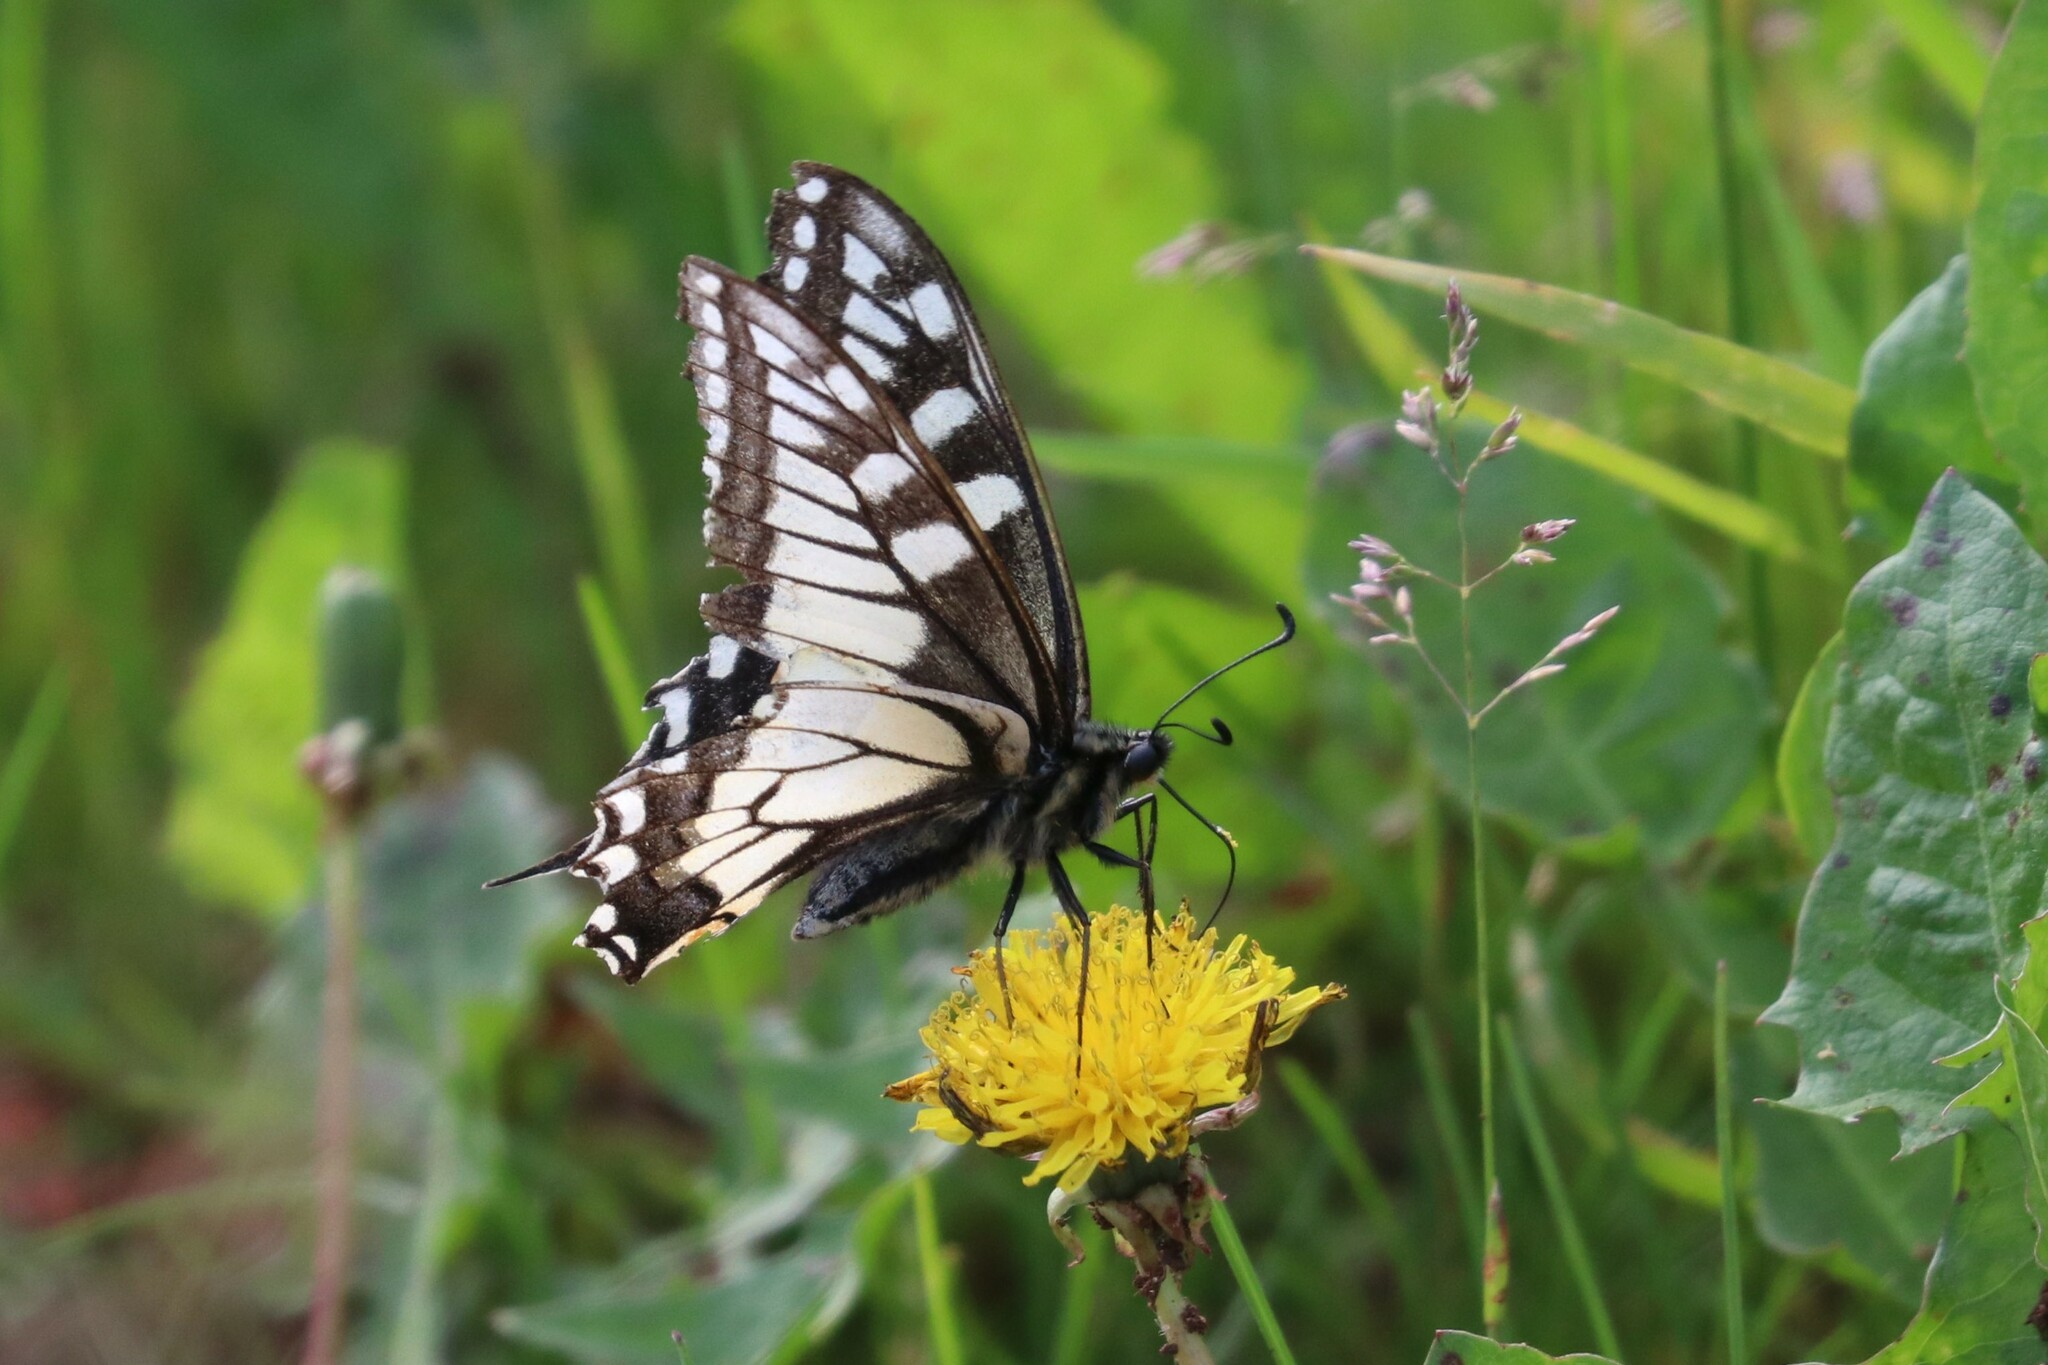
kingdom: Animalia
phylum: Arthropoda
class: Insecta
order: Lepidoptera
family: Papilionidae
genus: Papilio
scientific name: Papilio machaon
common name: Swallowtail
